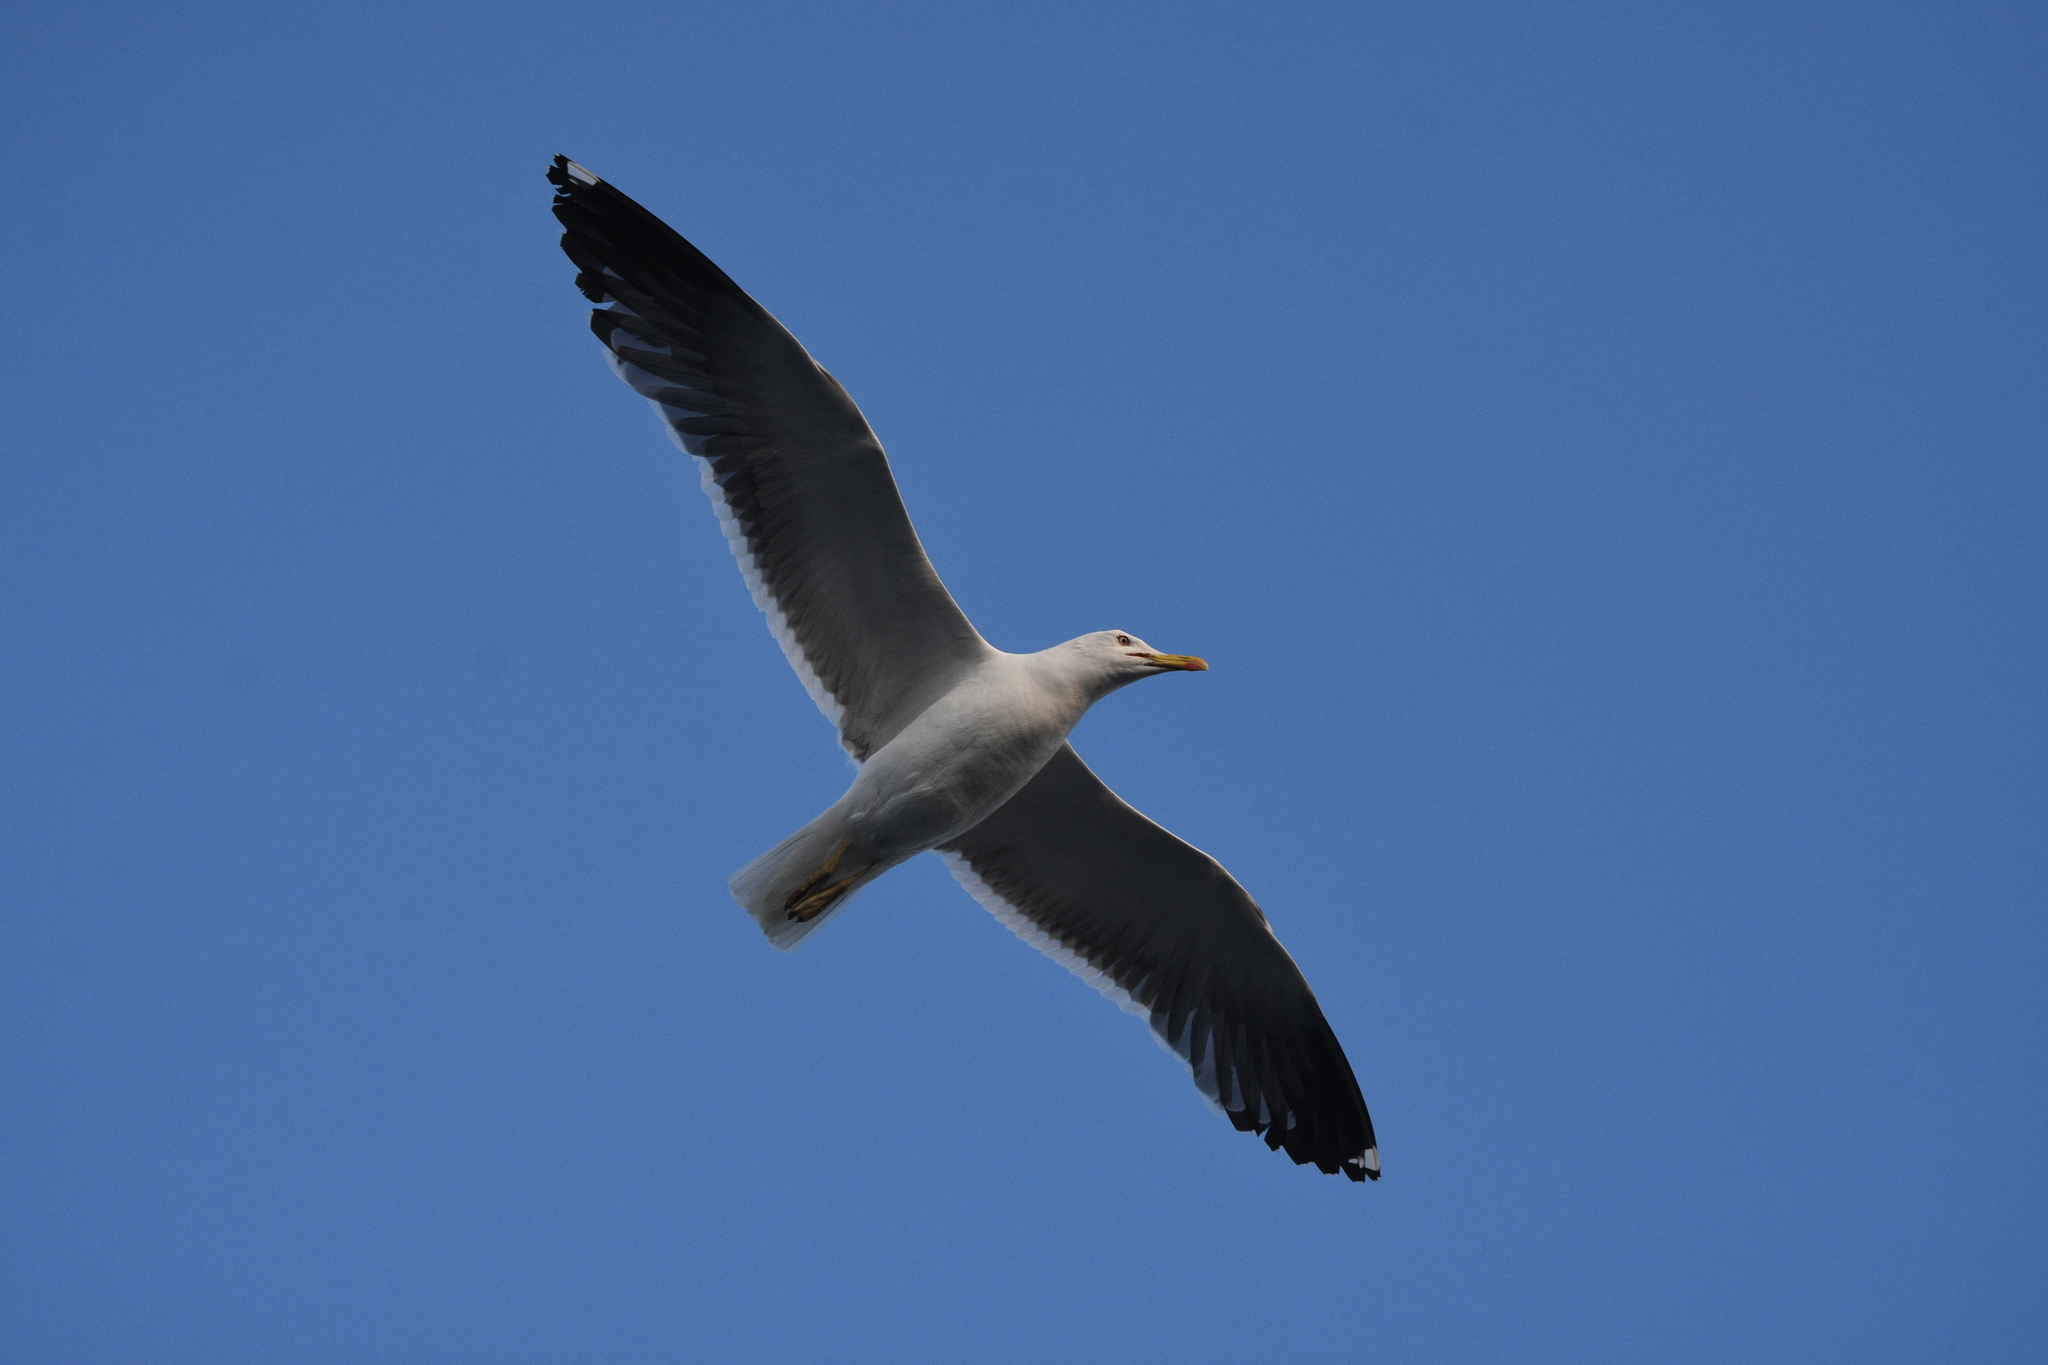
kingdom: Animalia
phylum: Chordata
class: Aves
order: Charadriiformes
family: Laridae
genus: Larus
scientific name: Larus fuscus
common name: Lesser black-backed gull
